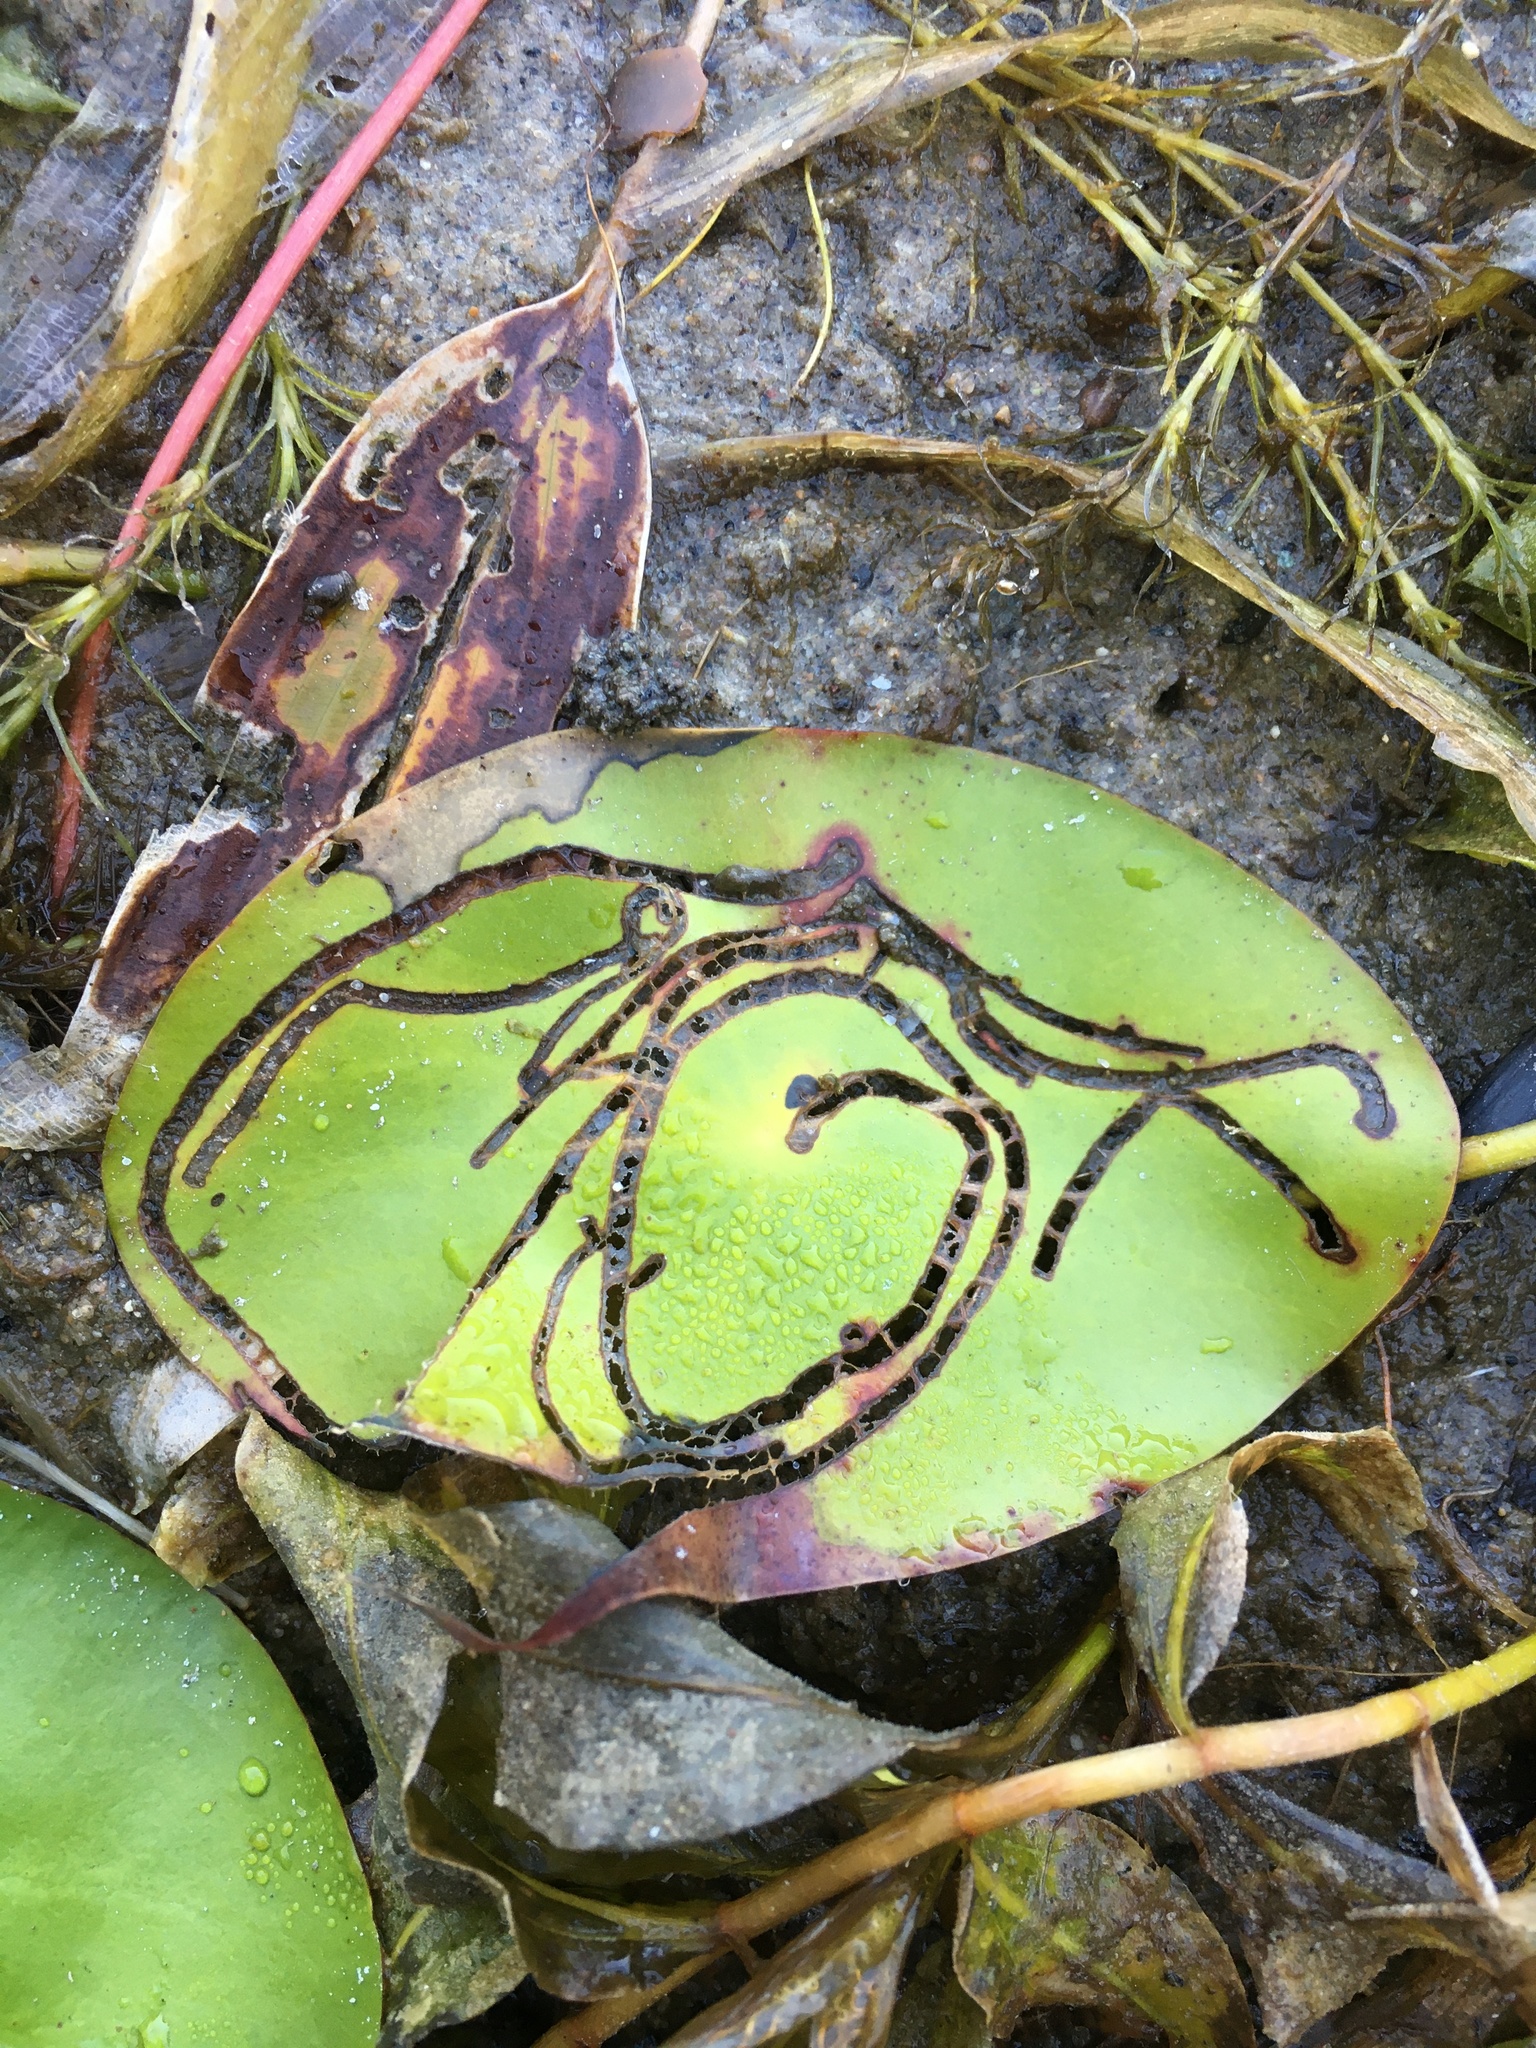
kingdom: Animalia
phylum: Arthropoda
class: Insecta
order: Diptera
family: Chironomidae
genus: Polypedilum
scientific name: Polypedilum braseniae
